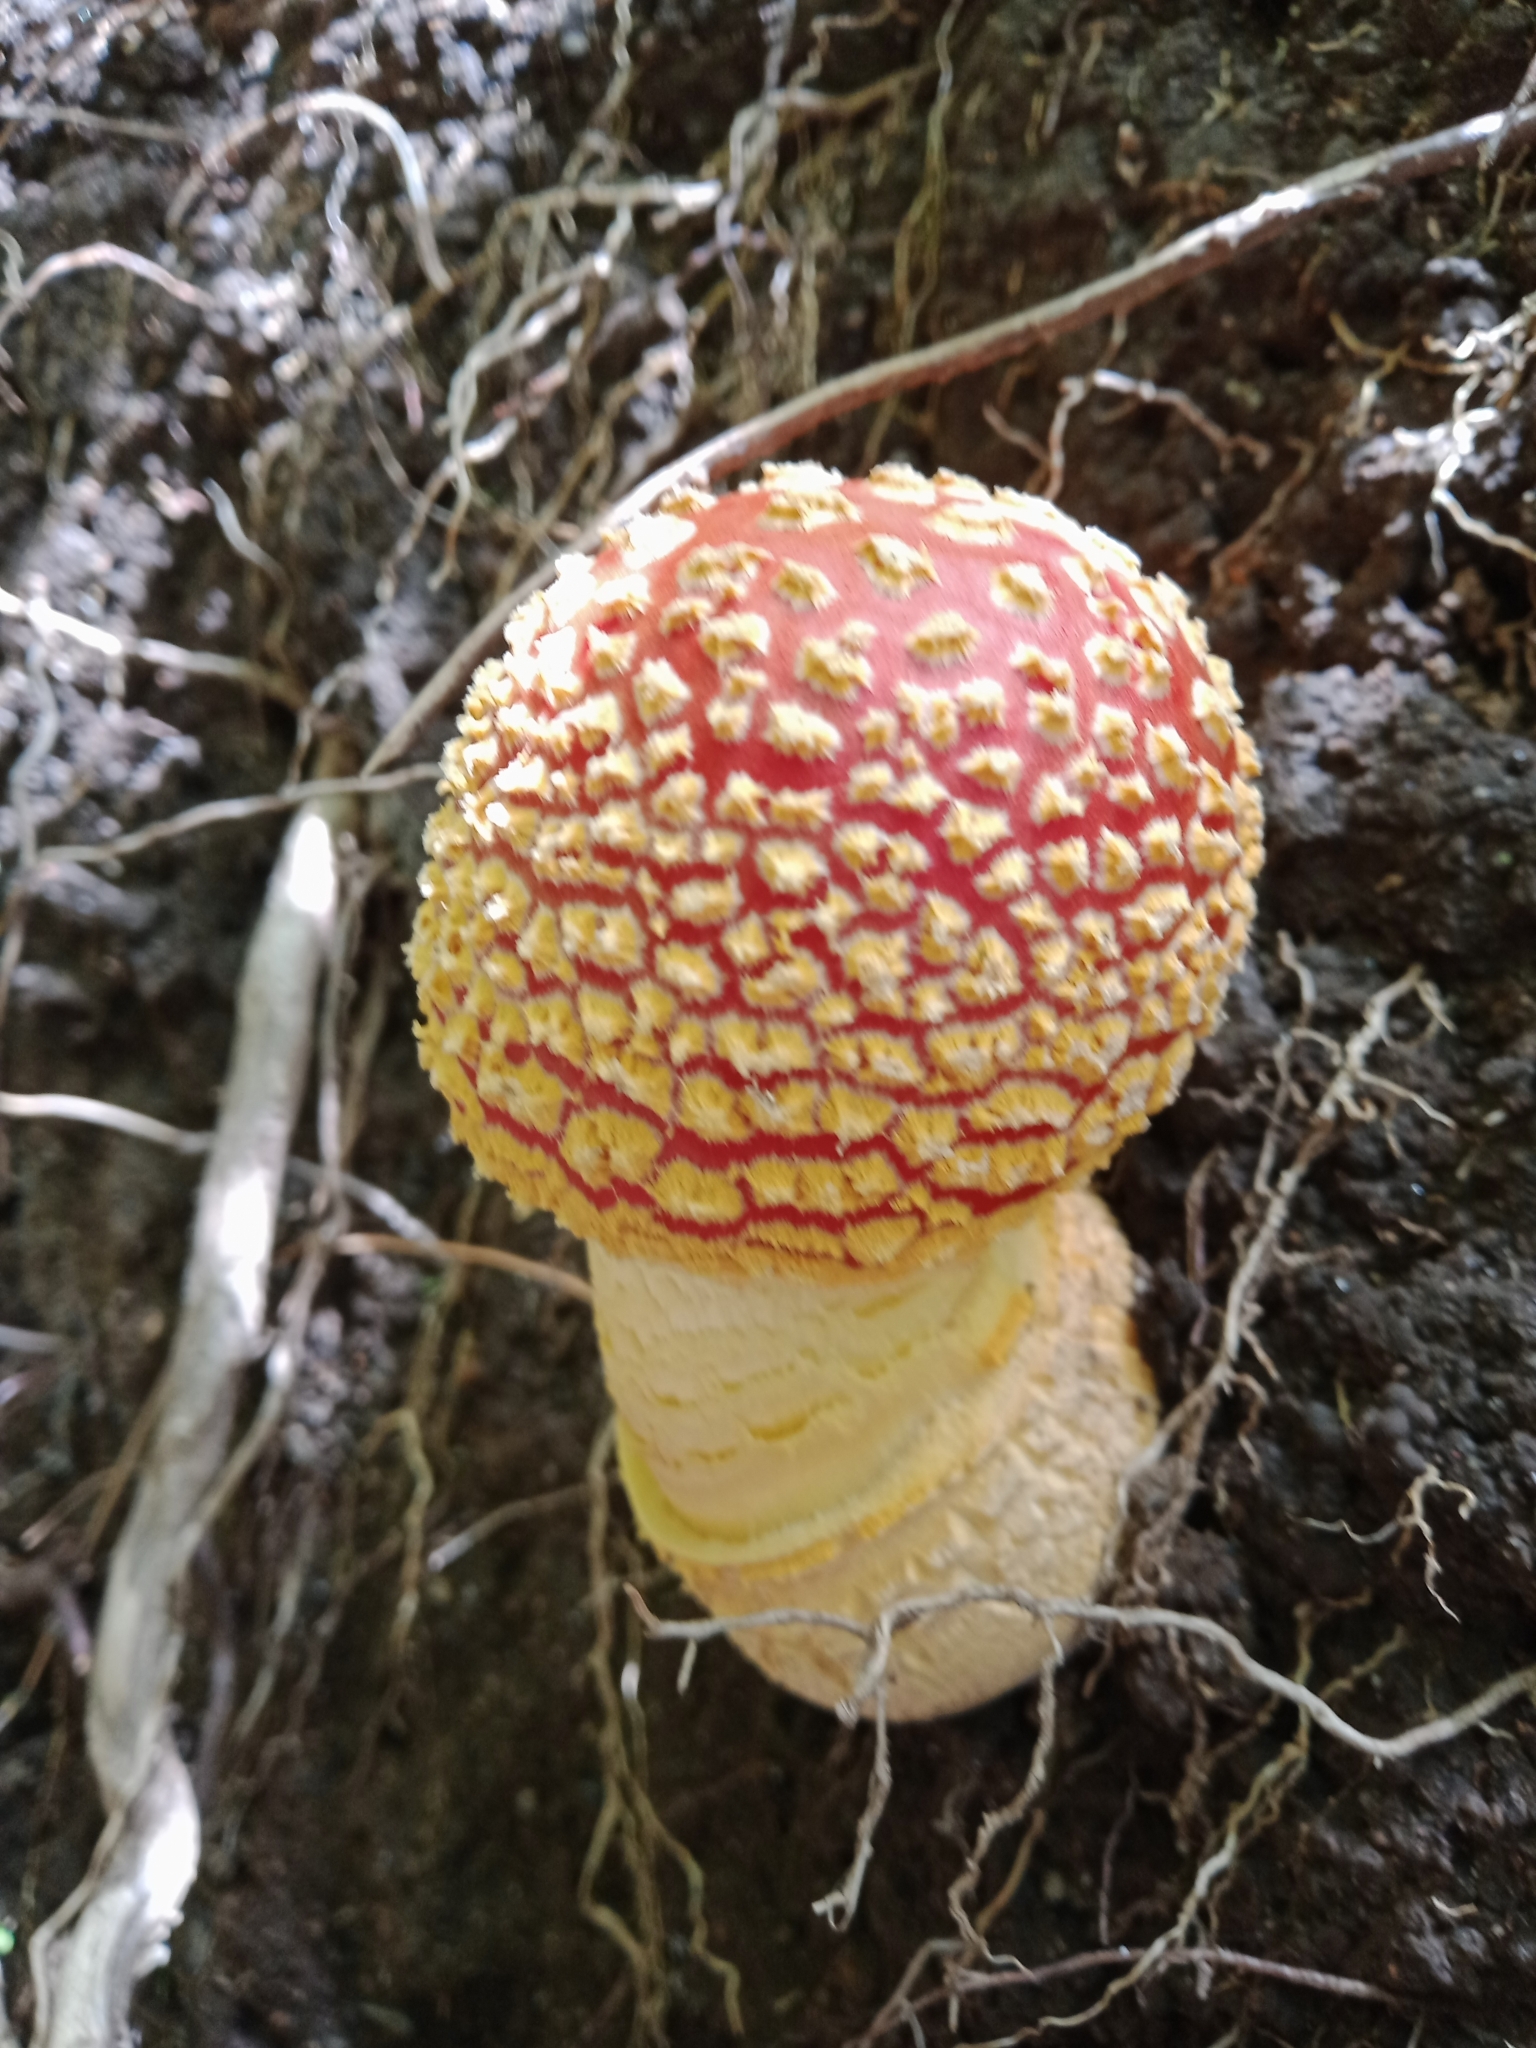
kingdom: Fungi
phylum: Basidiomycota
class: Agaricomycetes
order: Agaricales
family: Amanitaceae
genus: Amanita
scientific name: Amanita muscaria
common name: Fly agaric
